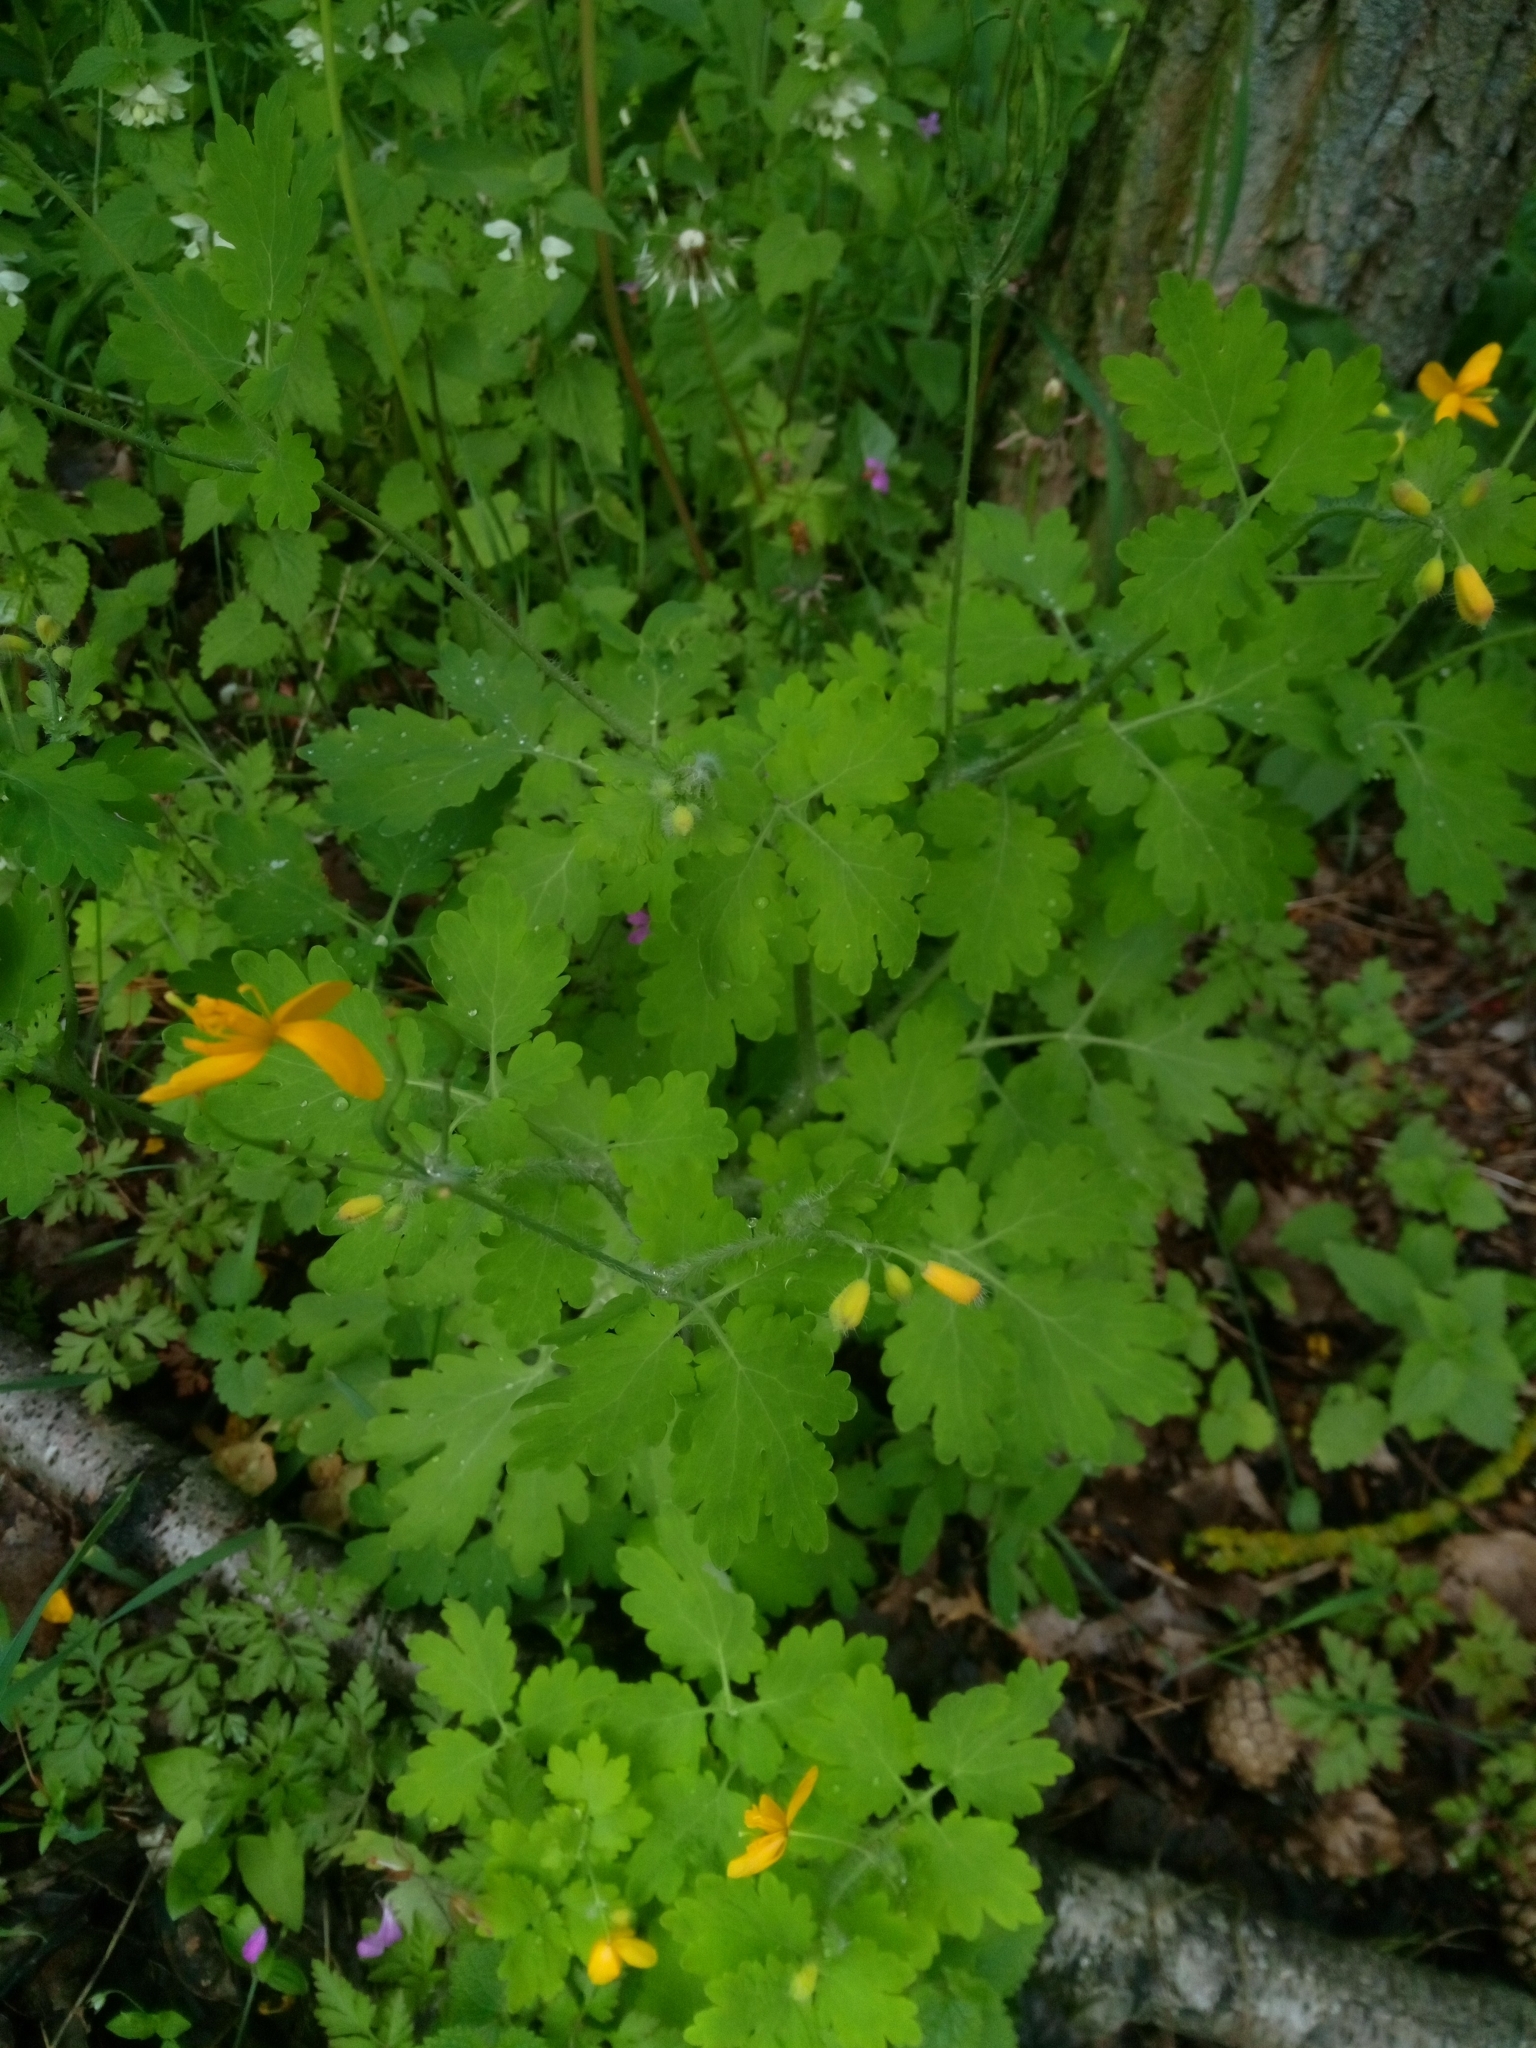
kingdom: Plantae
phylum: Tracheophyta
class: Magnoliopsida
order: Ranunculales
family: Papaveraceae
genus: Chelidonium
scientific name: Chelidonium majus
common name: Greater celandine
